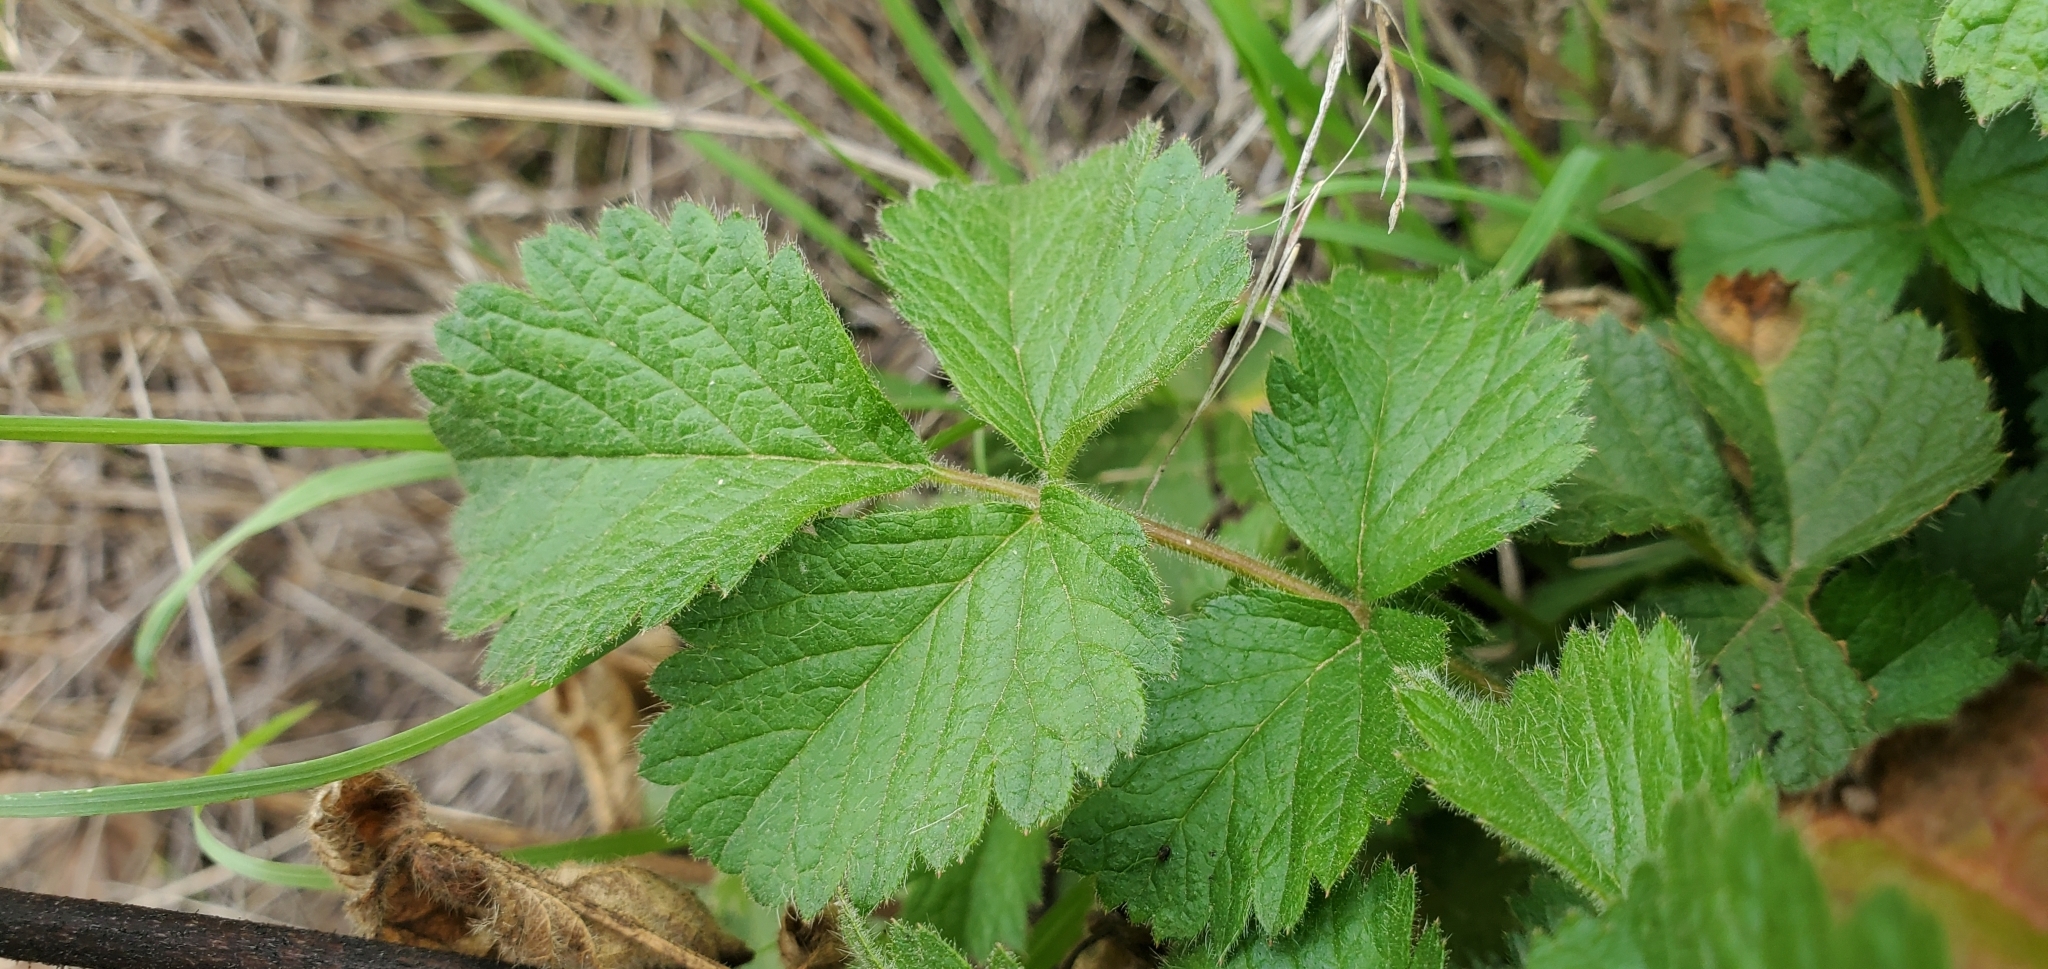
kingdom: Plantae
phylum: Tracheophyta
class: Magnoliopsida
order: Rosales
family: Rosaceae
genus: Drymocallis
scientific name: Drymocallis glandulosa
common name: Sticky cinquefoil
